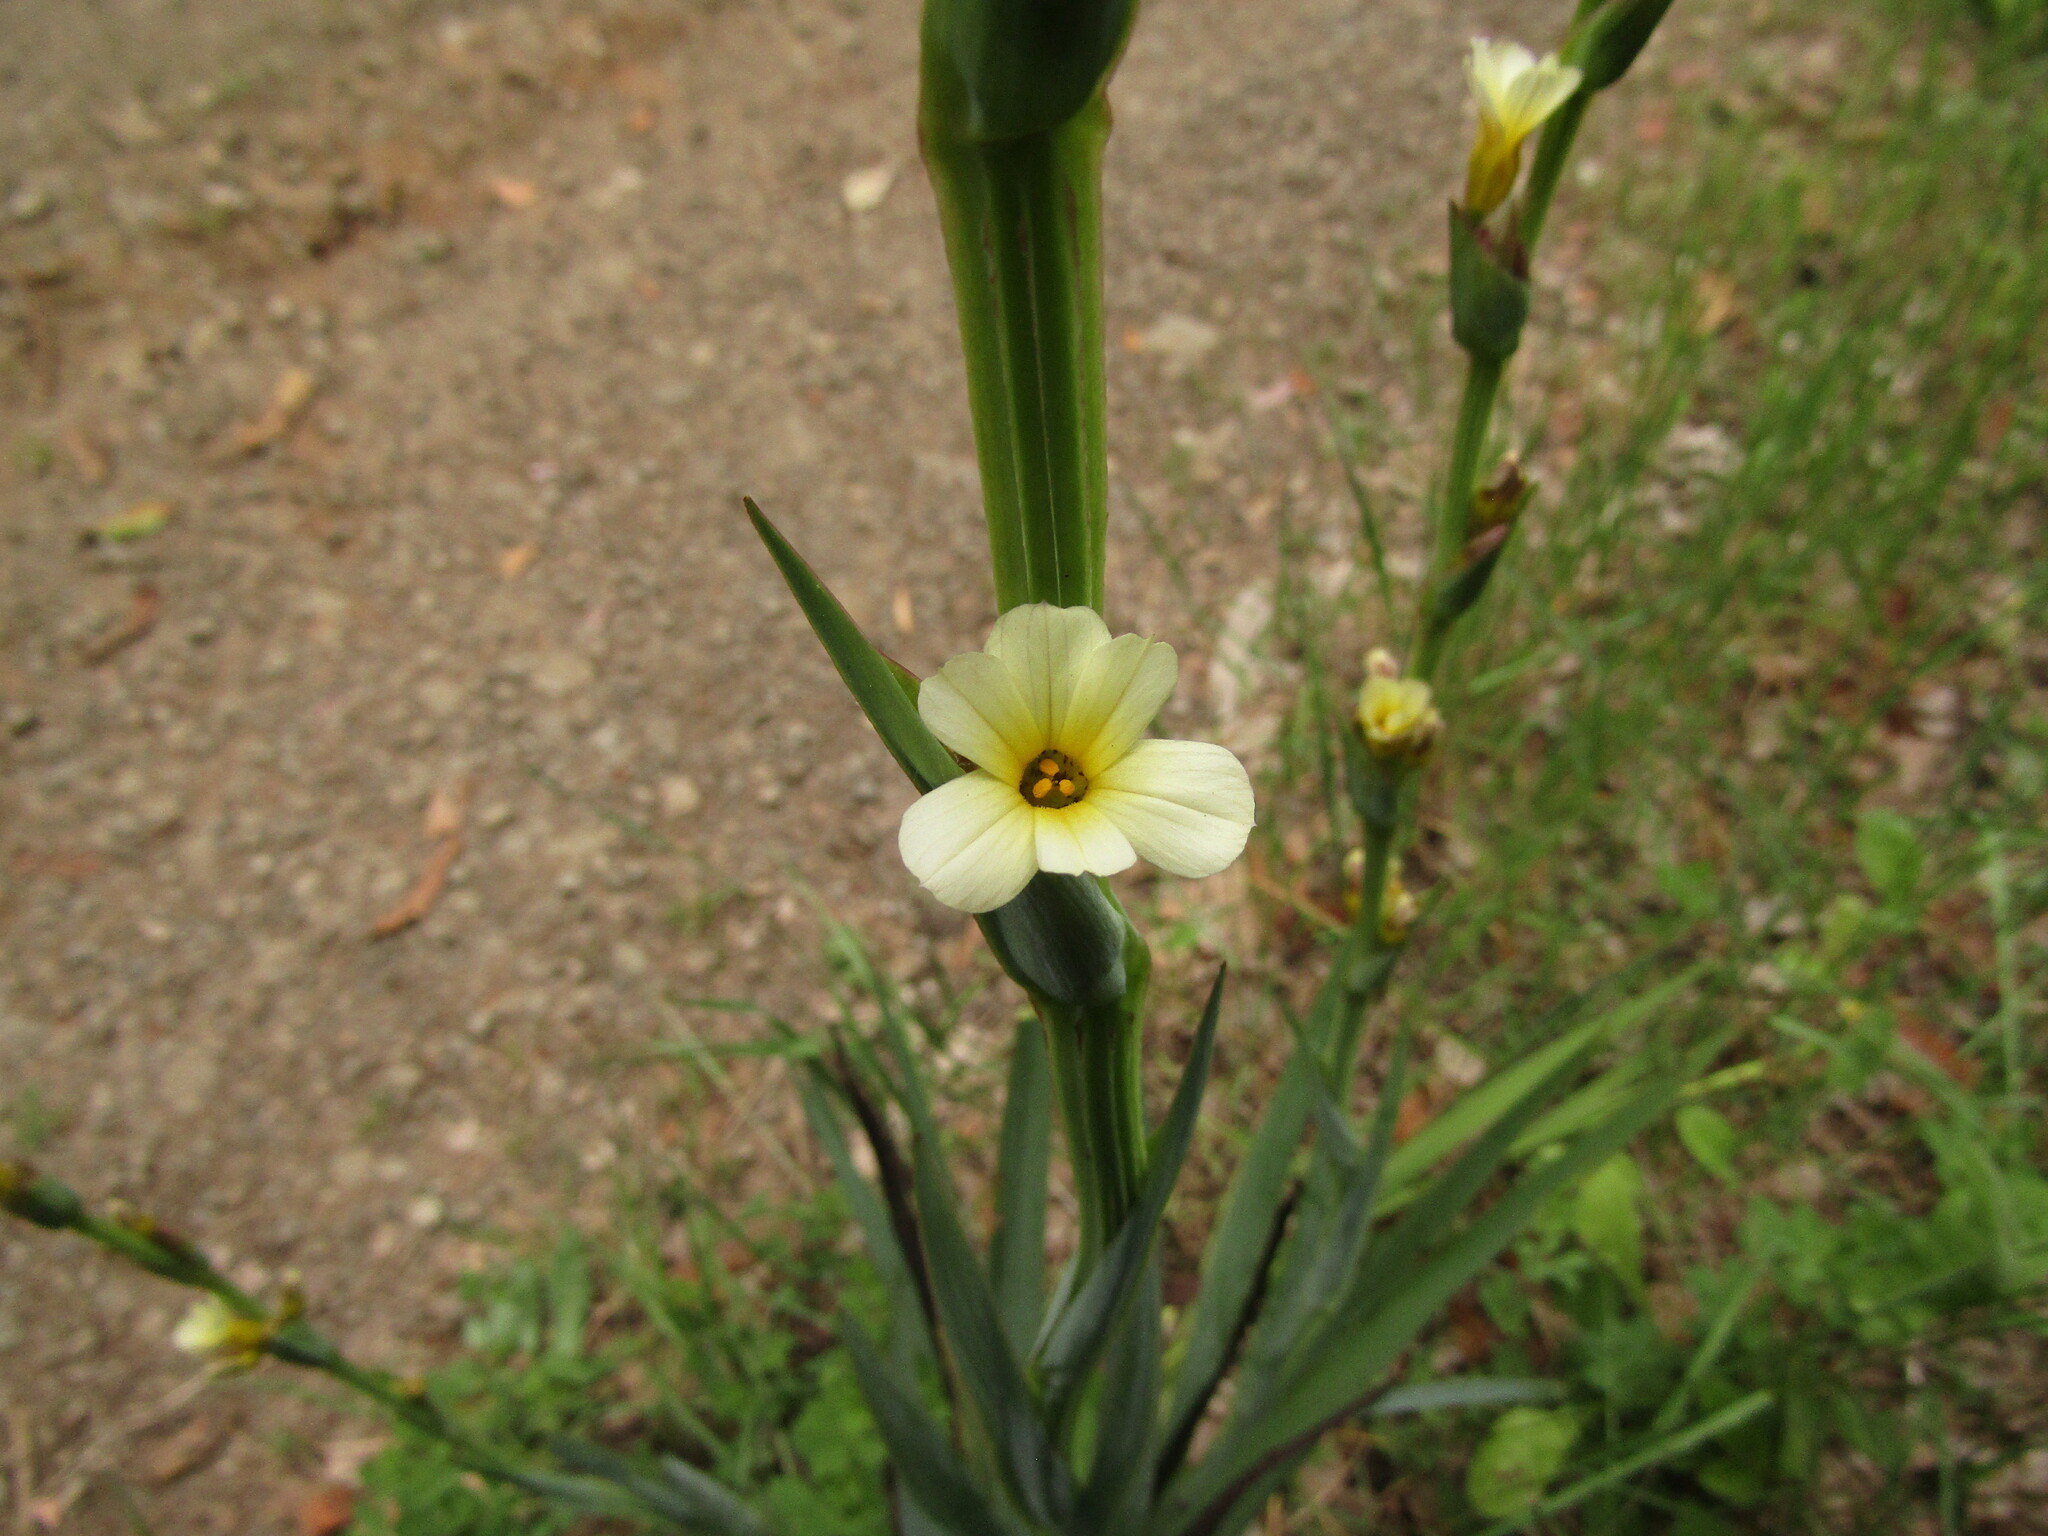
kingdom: Plantae
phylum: Tracheophyta
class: Liliopsida
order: Asparagales
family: Iridaceae
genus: Sisyrinchium
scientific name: Sisyrinchium striatum
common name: Pale yellow-eyed-grass
